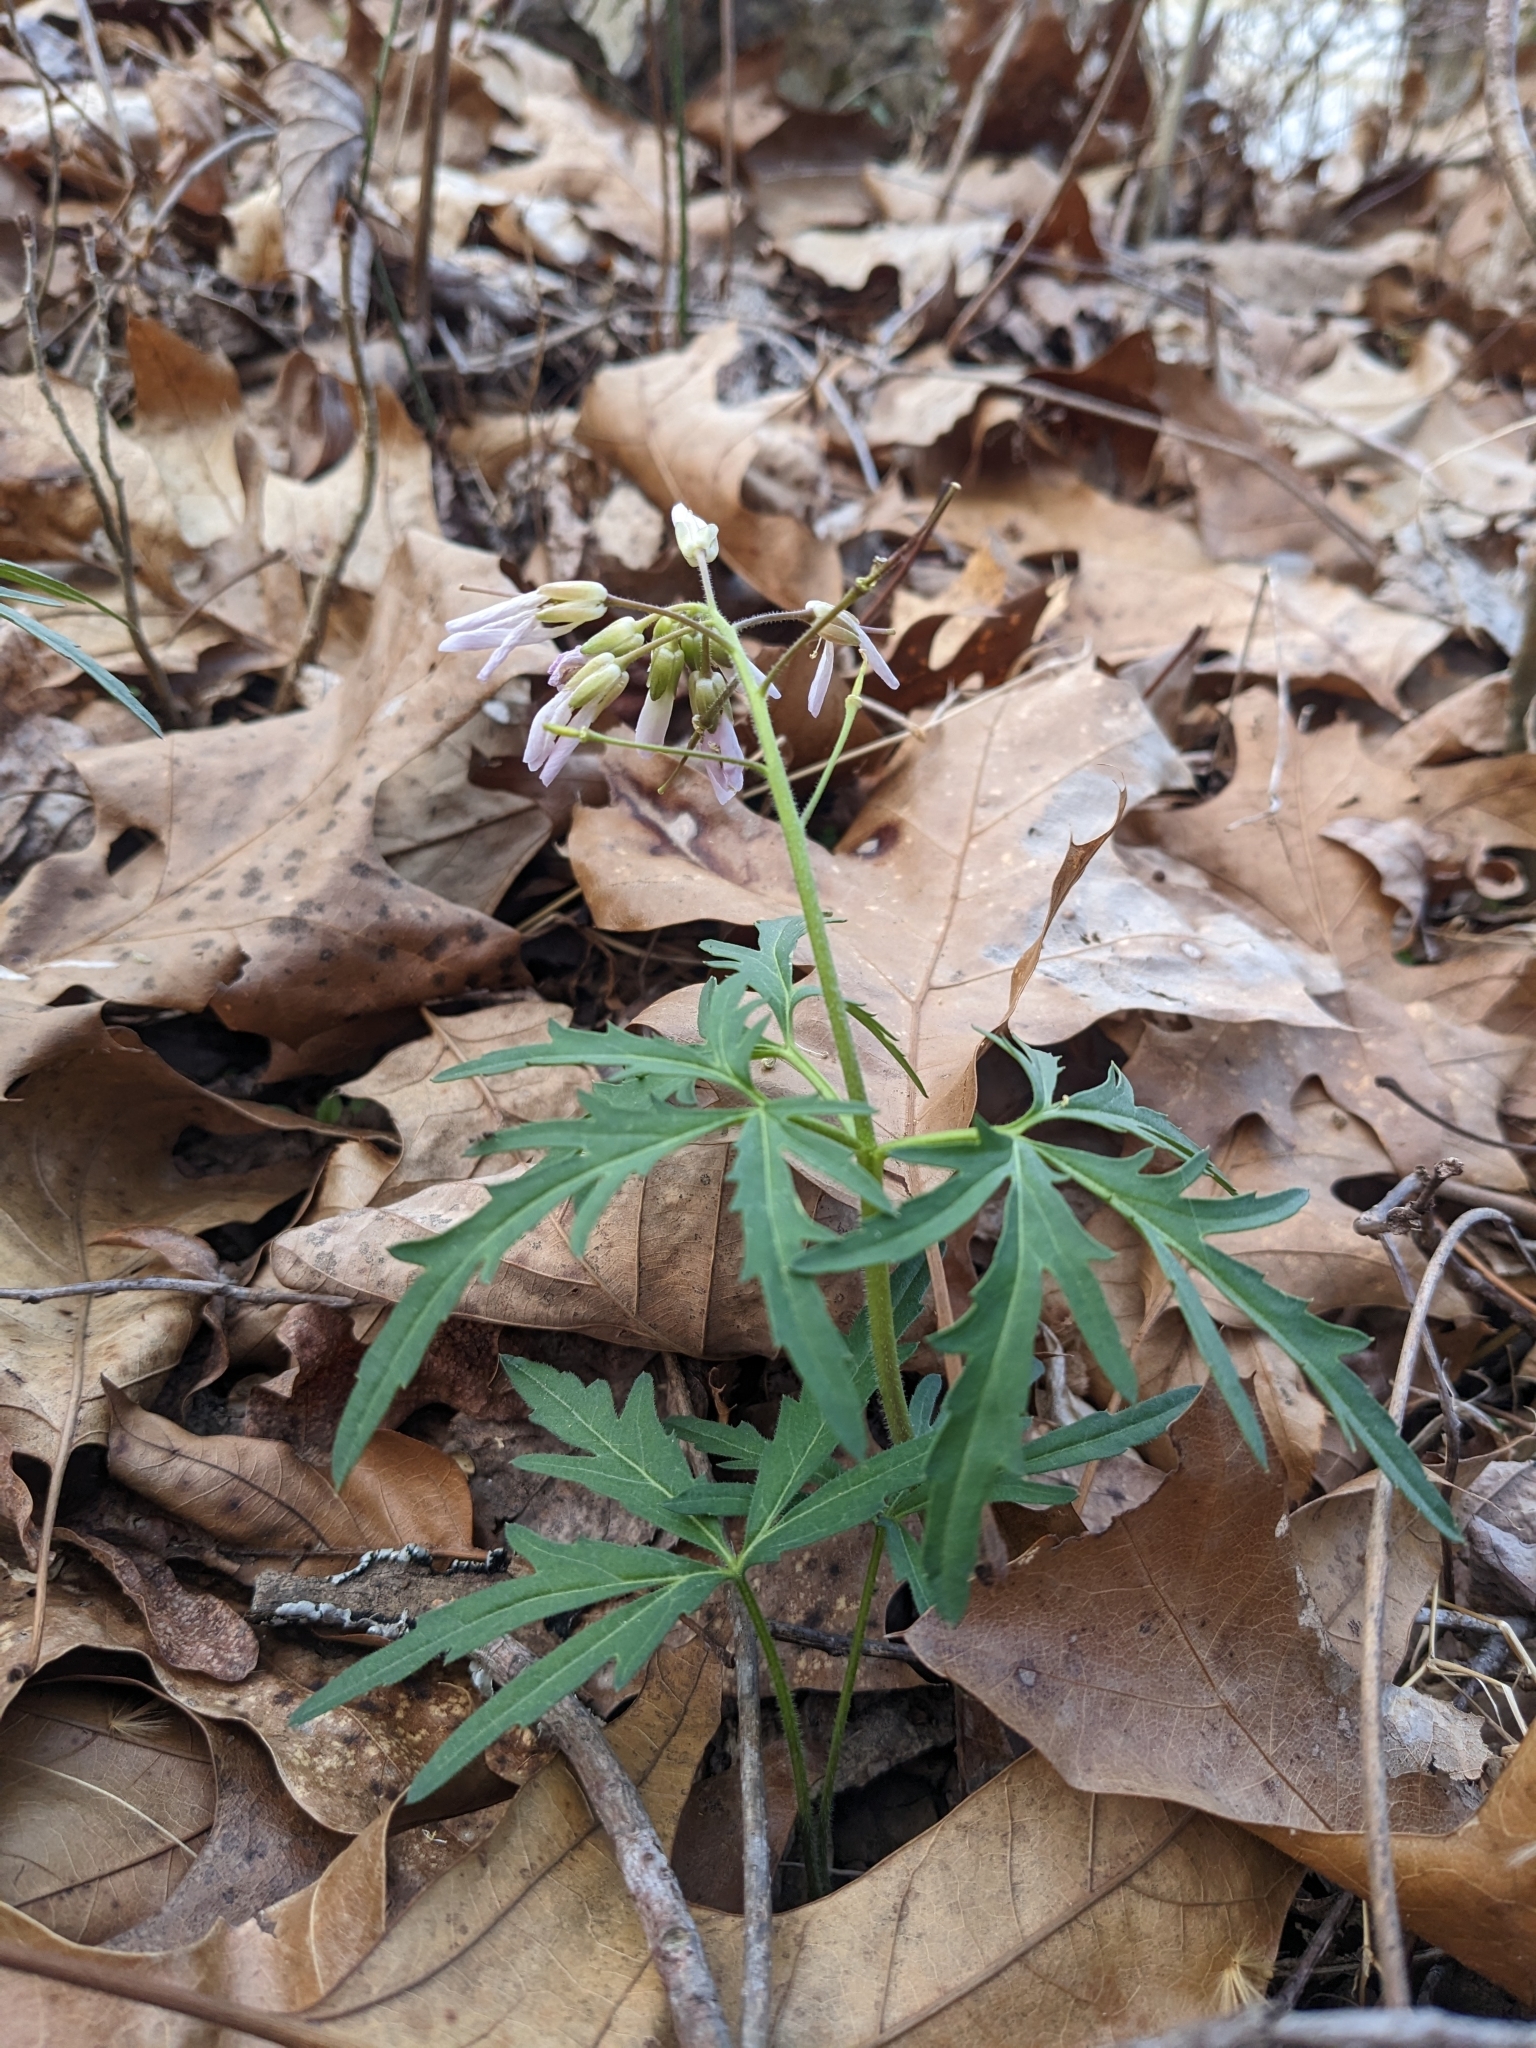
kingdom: Plantae
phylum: Tracheophyta
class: Magnoliopsida
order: Brassicales
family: Brassicaceae
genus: Cardamine
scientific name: Cardamine concatenata
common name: Cut-leaf toothcup
